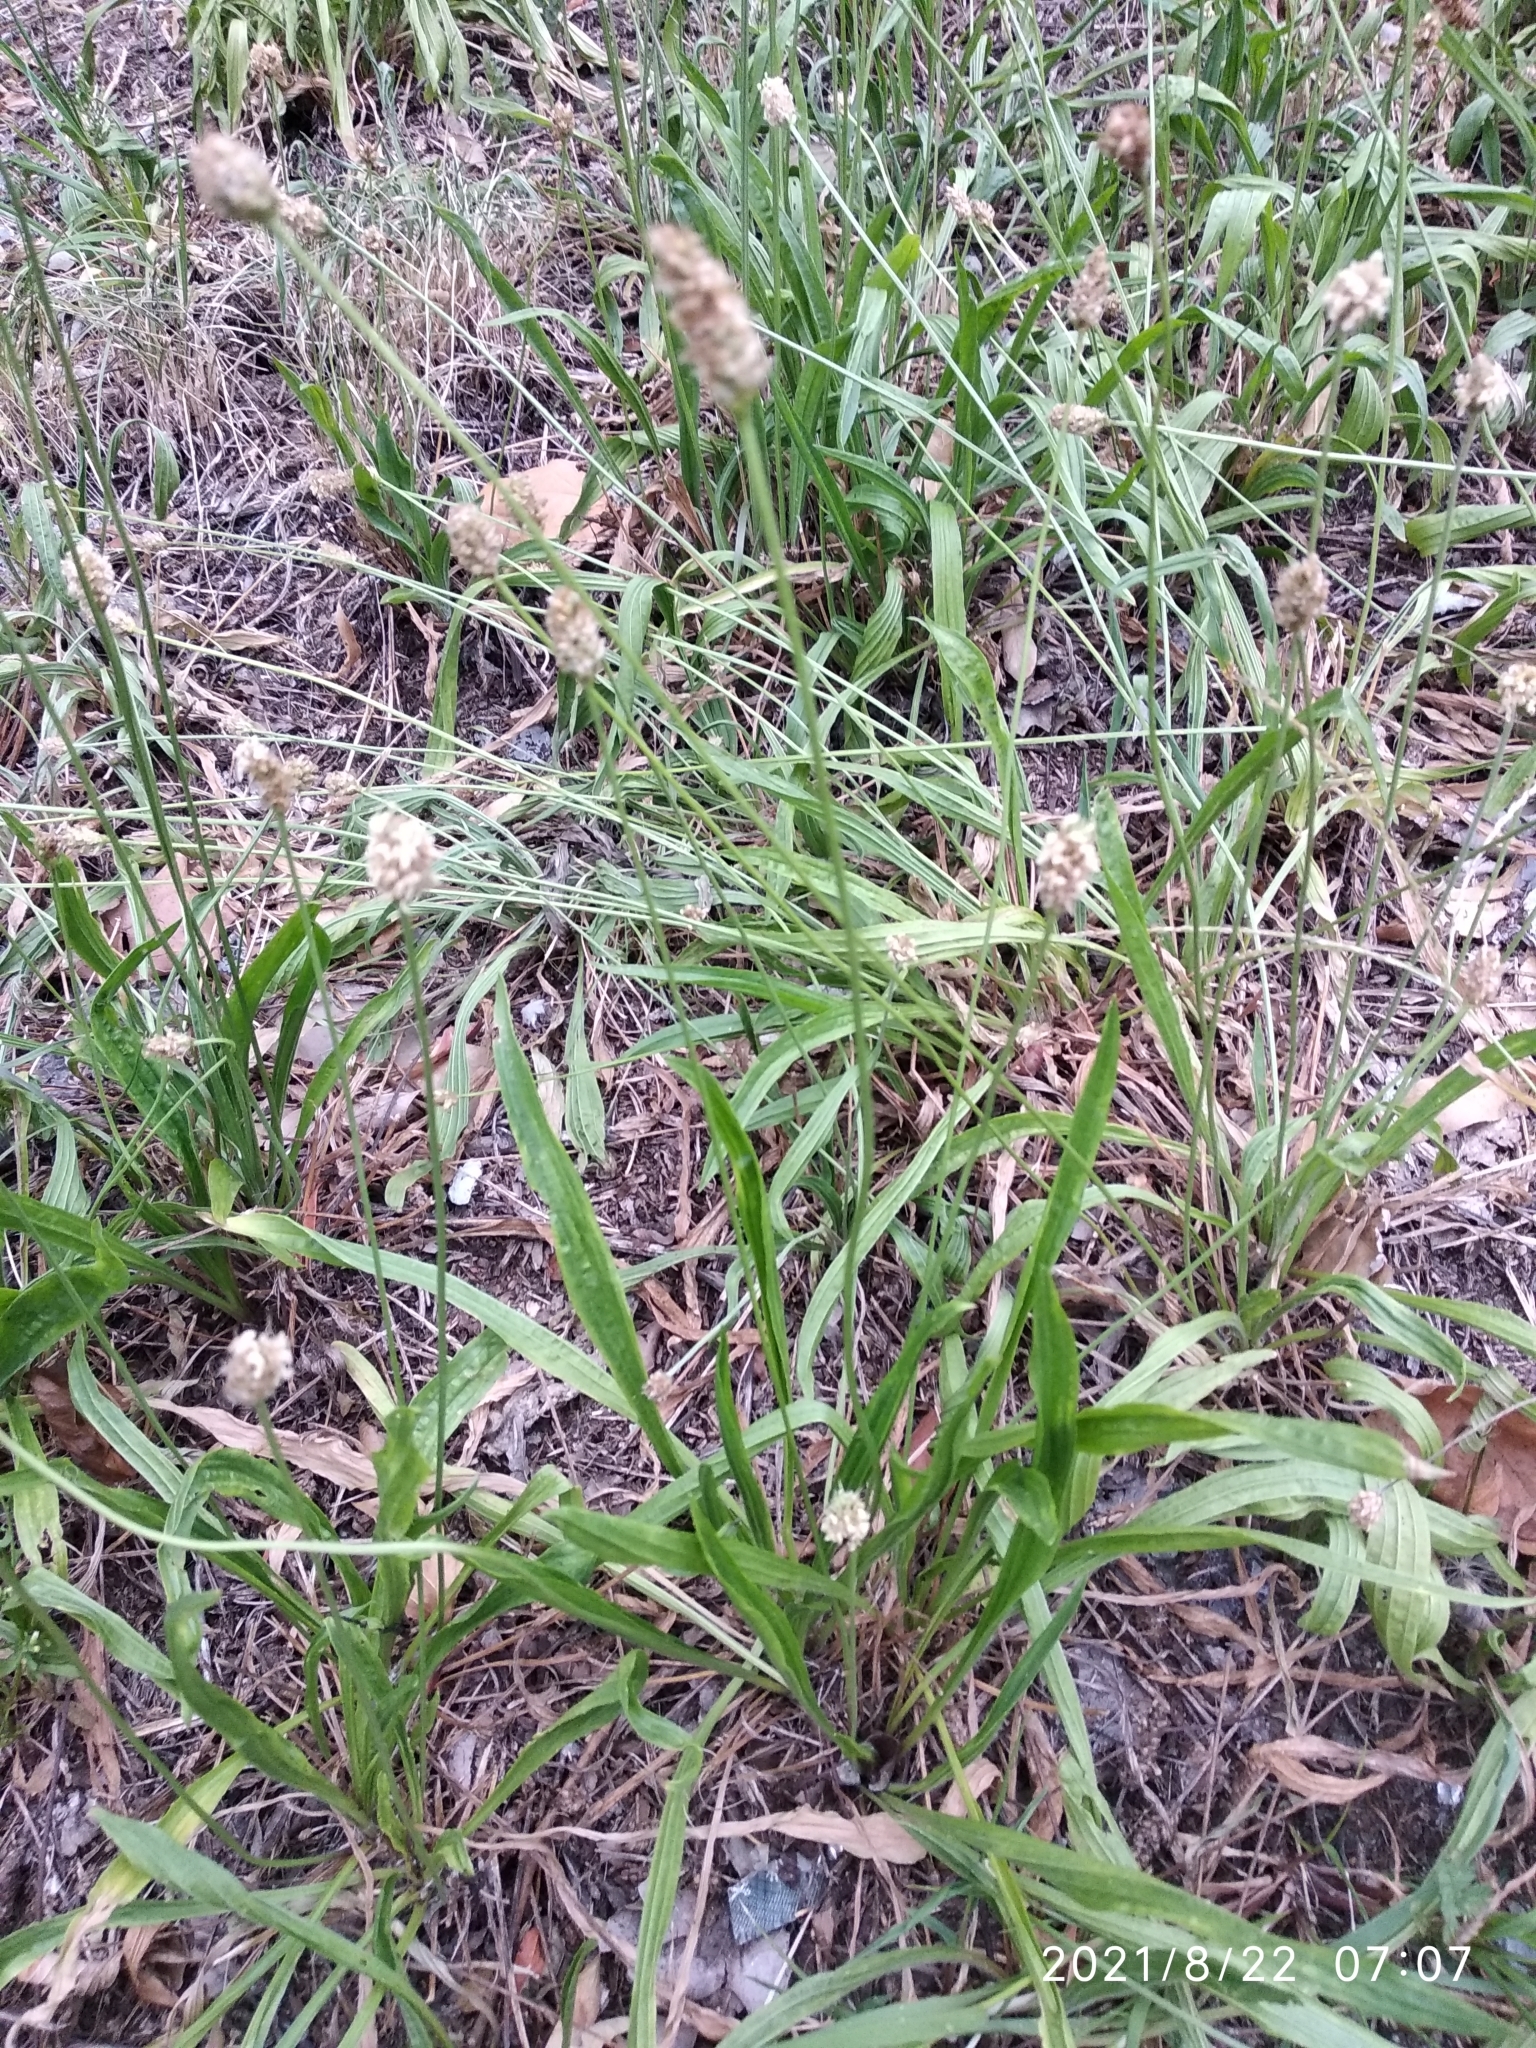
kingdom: Plantae
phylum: Tracheophyta
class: Magnoliopsida
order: Lamiales
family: Plantaginaceae
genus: Plantago
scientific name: Plantago lanceolata
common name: Ribwort plantain
